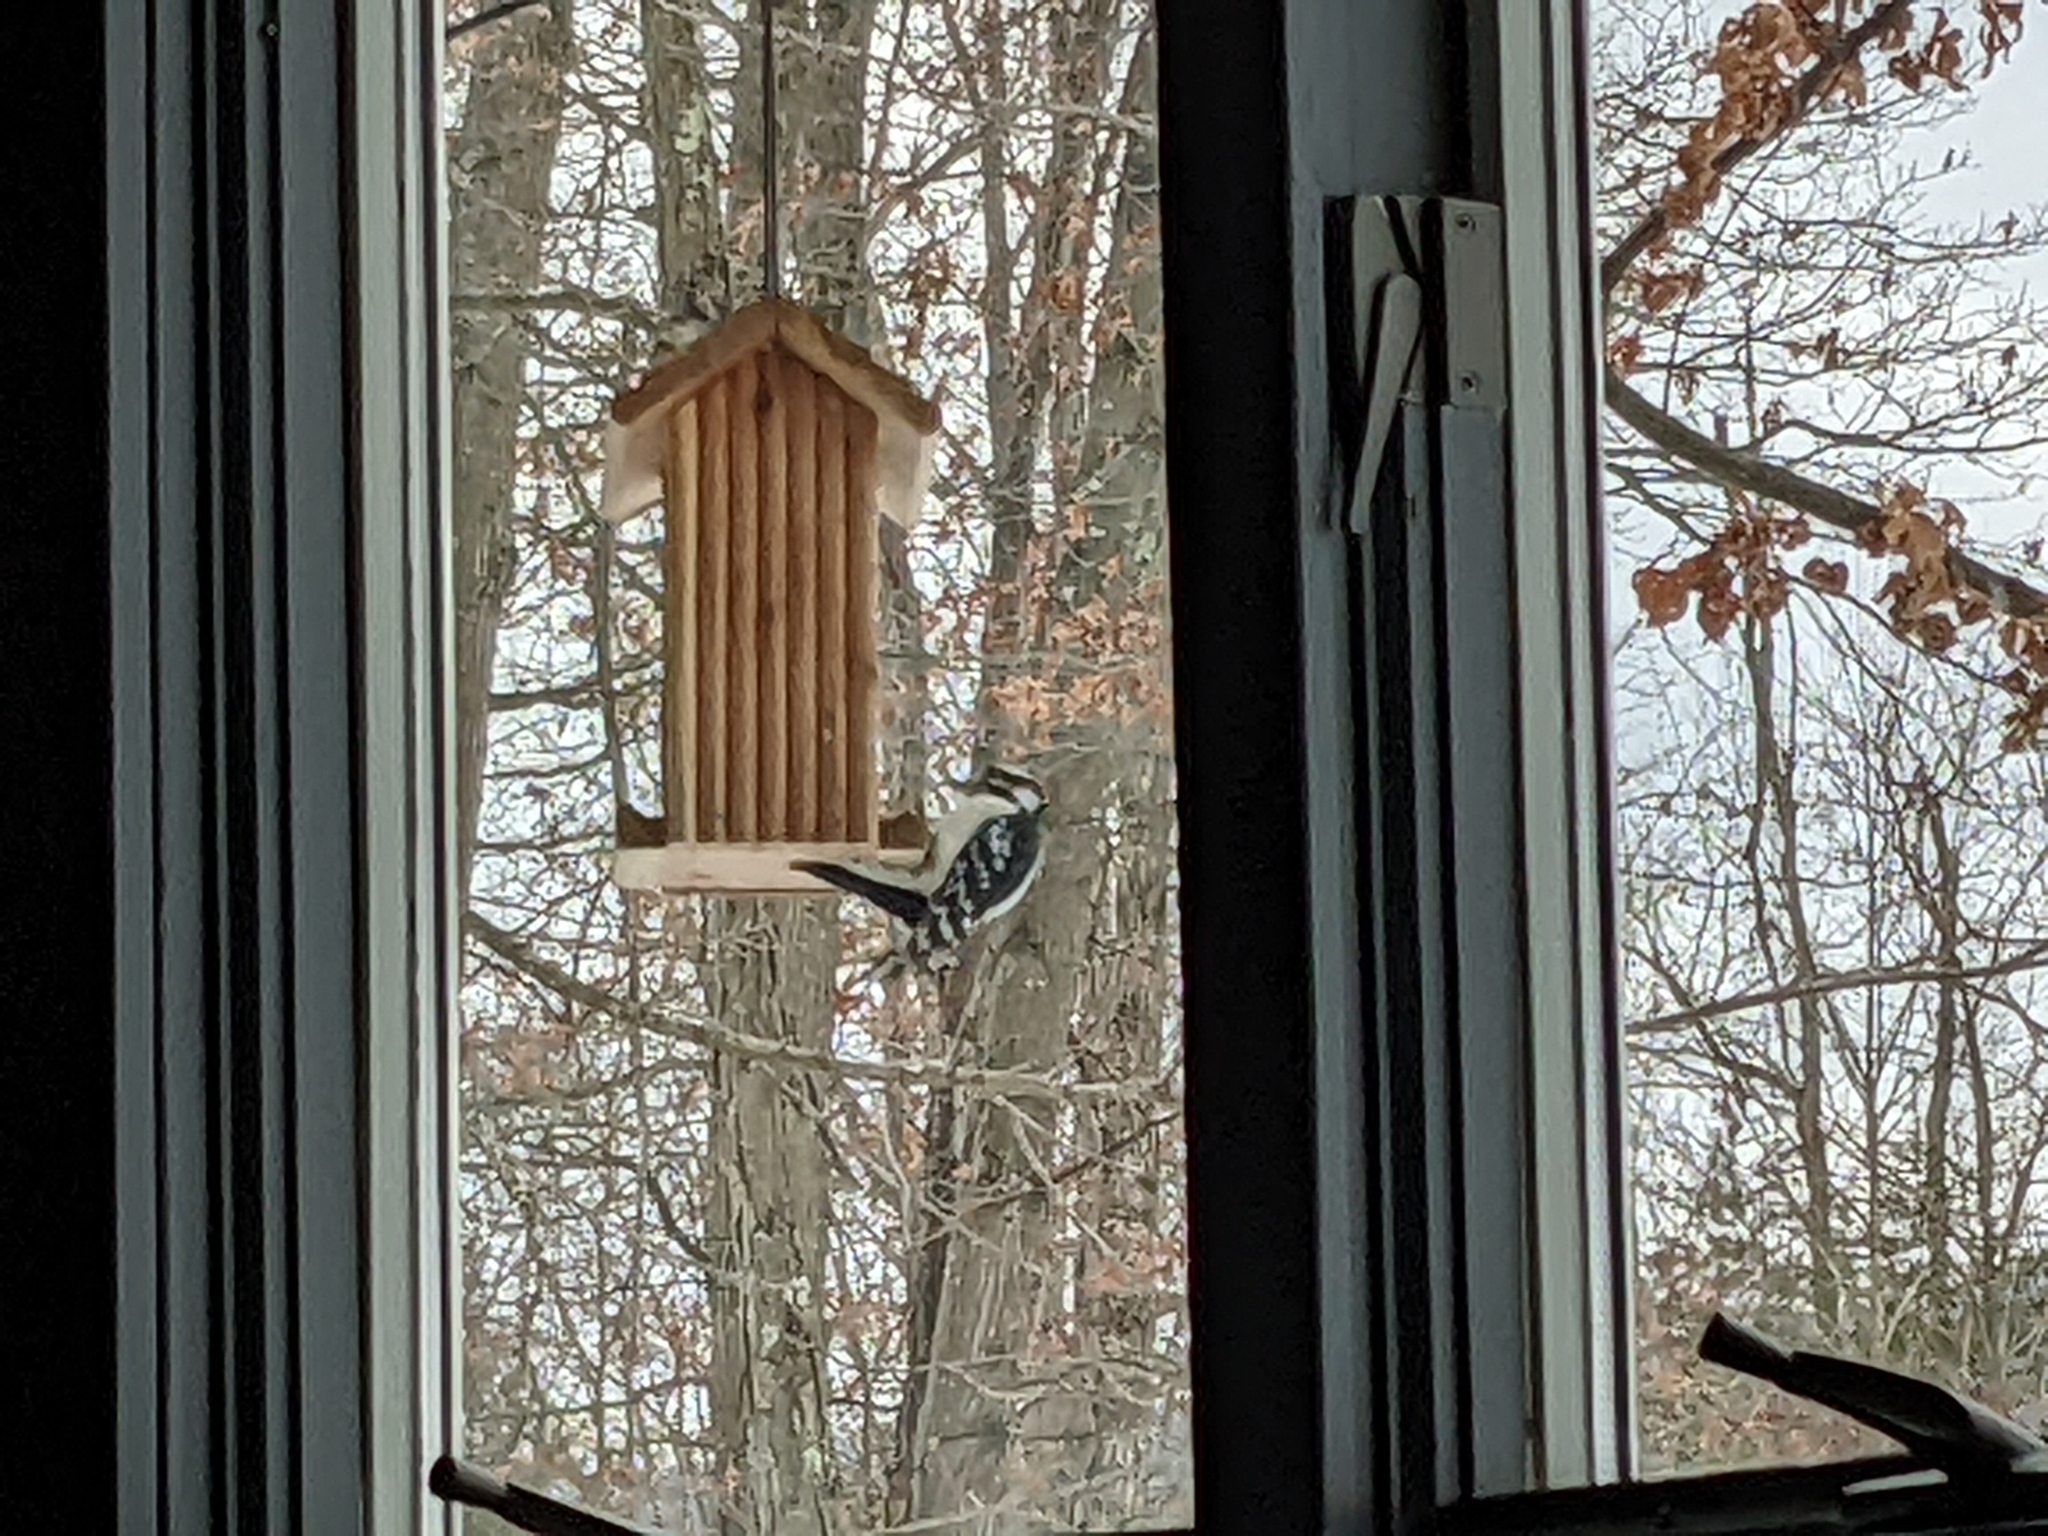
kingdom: Animalia
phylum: Chordata
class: Aves
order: Piciformes
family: Picidae
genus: Dryobates
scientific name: Dryobates pubescens
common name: Downy woodpecker
